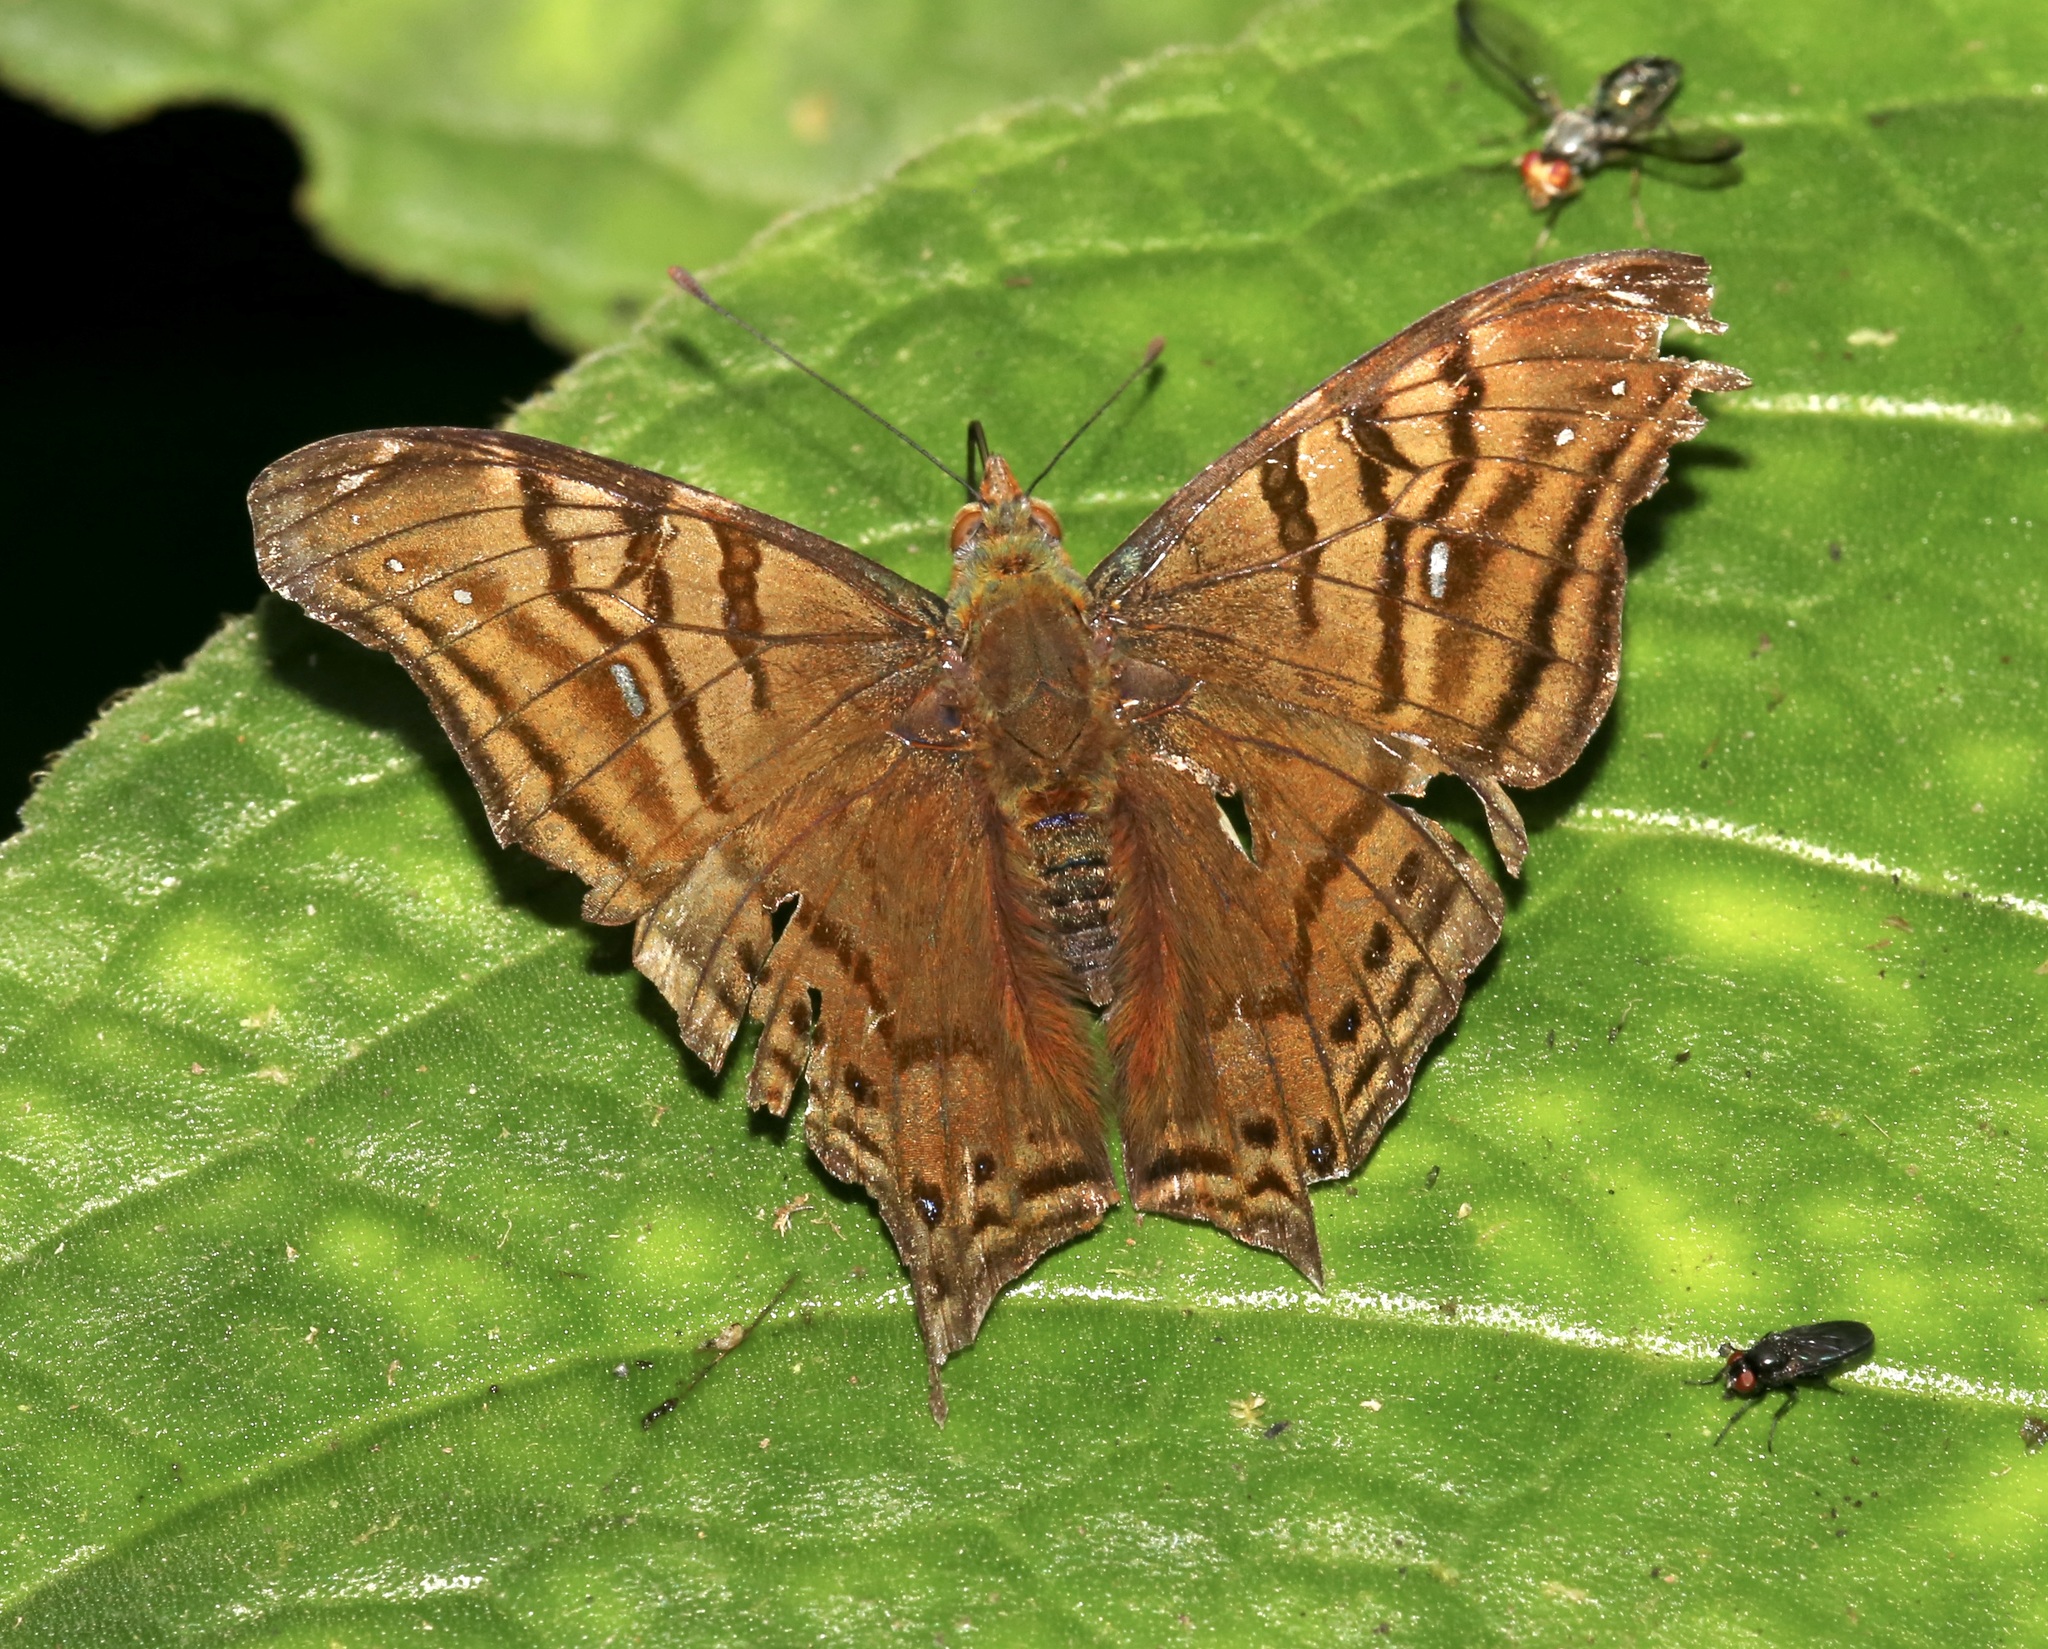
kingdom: Animalia
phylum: Arthropoda
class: Insecta
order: Lepidoptera
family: Nymphalidae
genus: Hypanartia
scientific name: Hypanartia dione
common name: Banded mapwing
